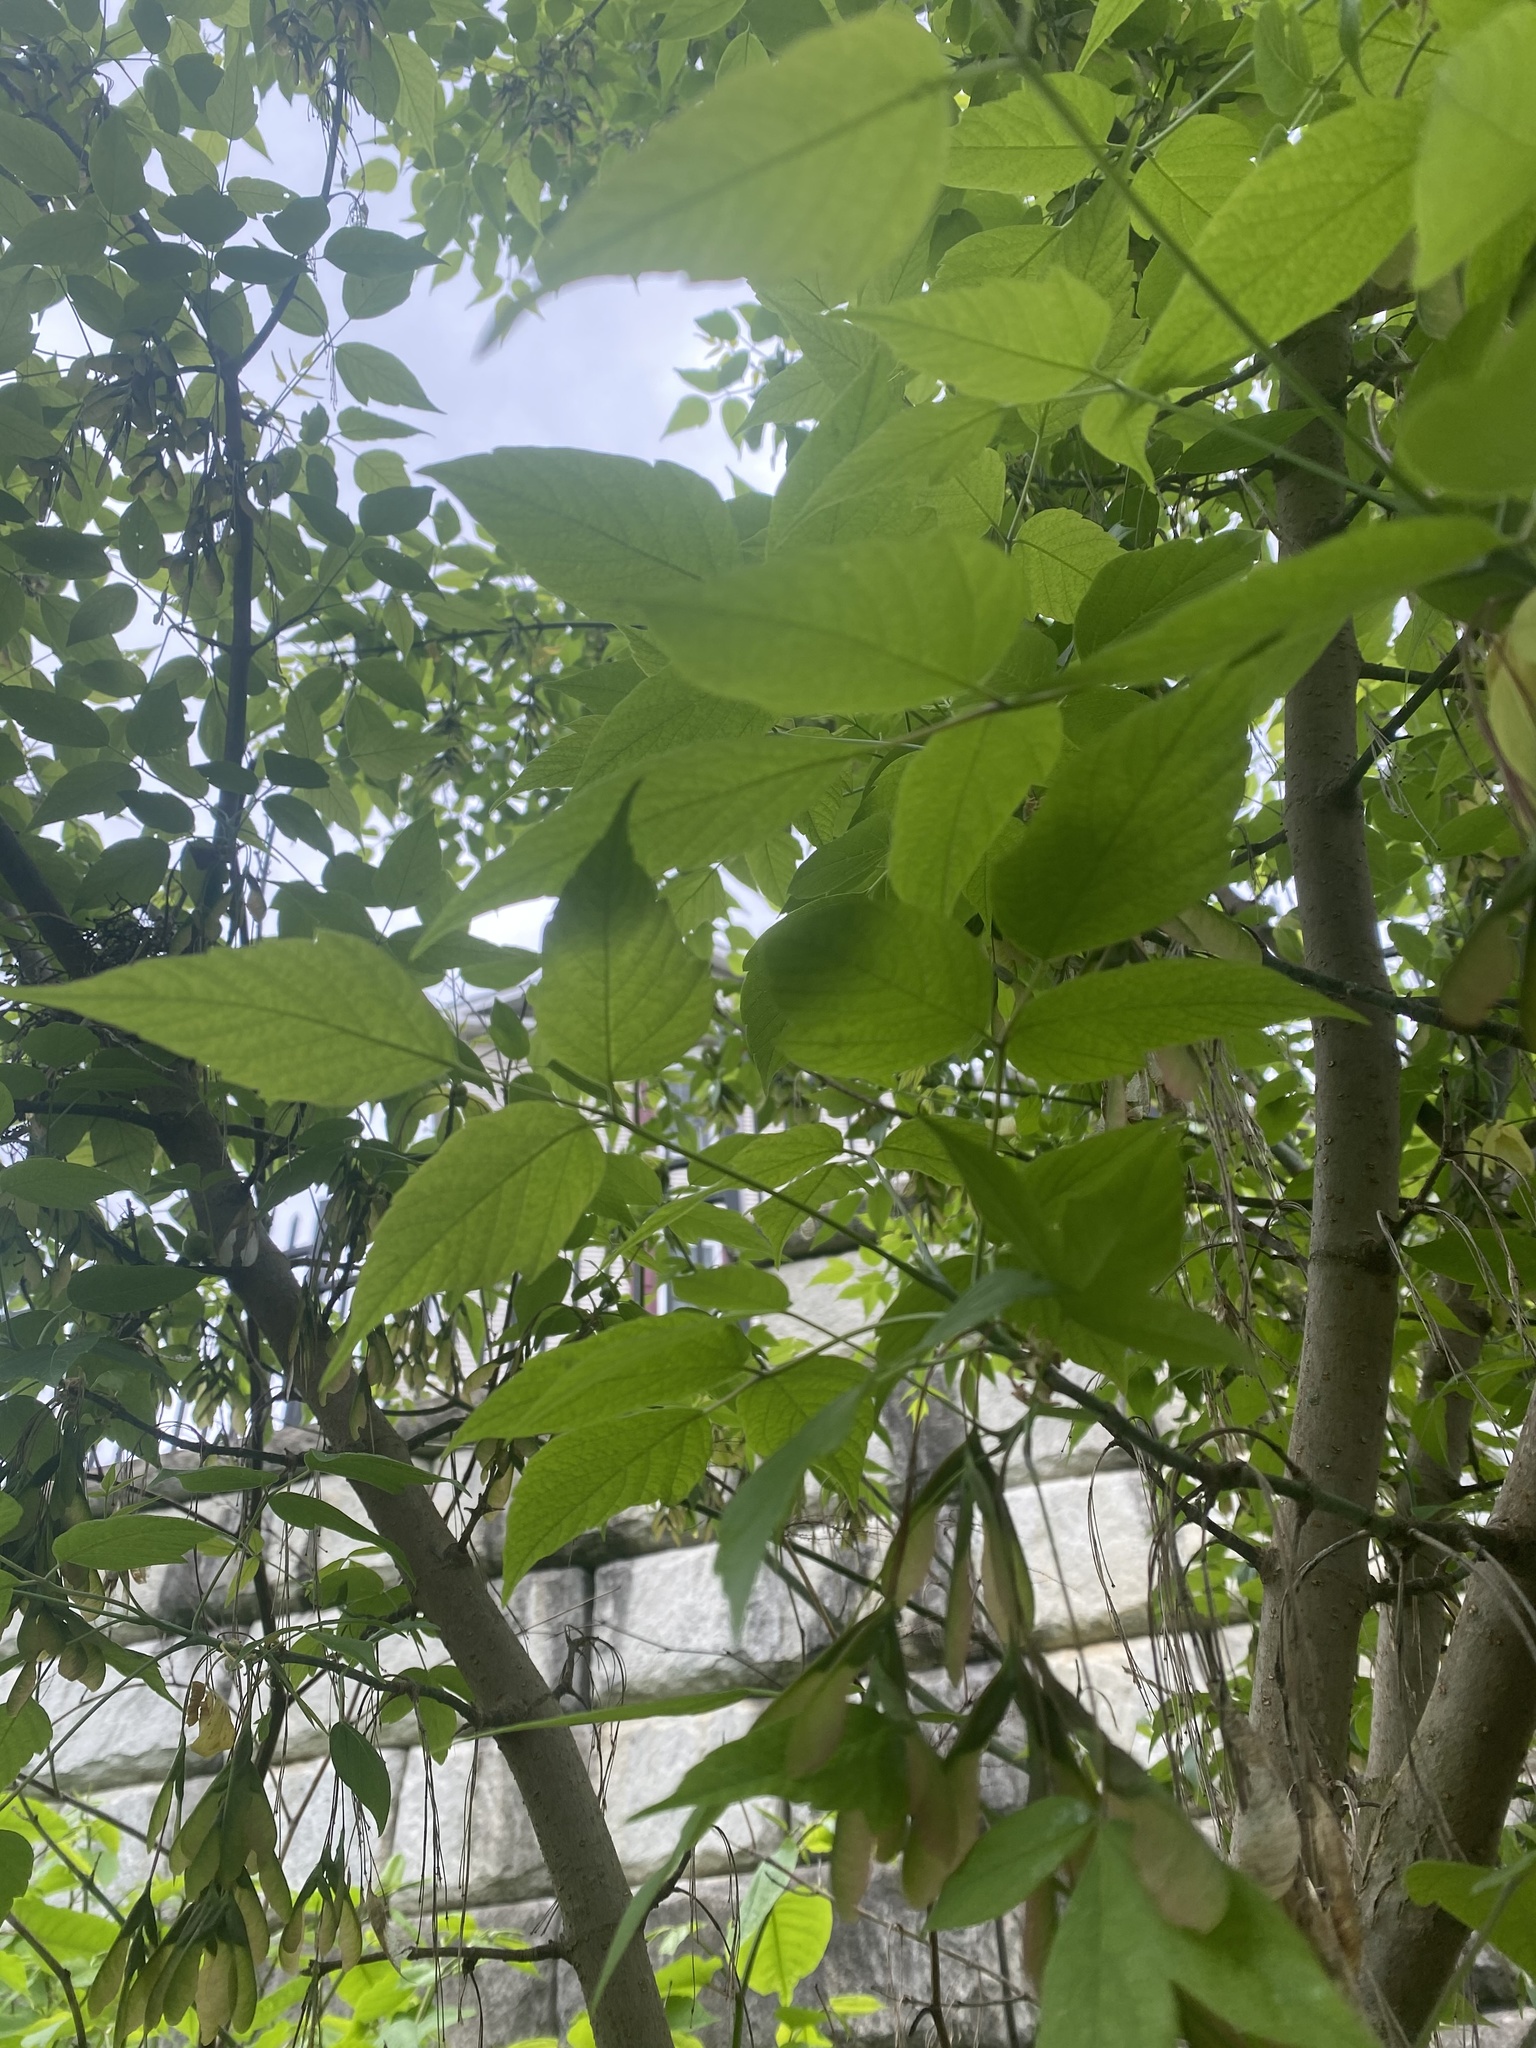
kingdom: Plantae
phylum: Tracheophyta
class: Magnoliopsida
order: Sapindales
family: Sapindaceae
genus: Acer
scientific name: Acer negundo
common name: Ashleaf maple
